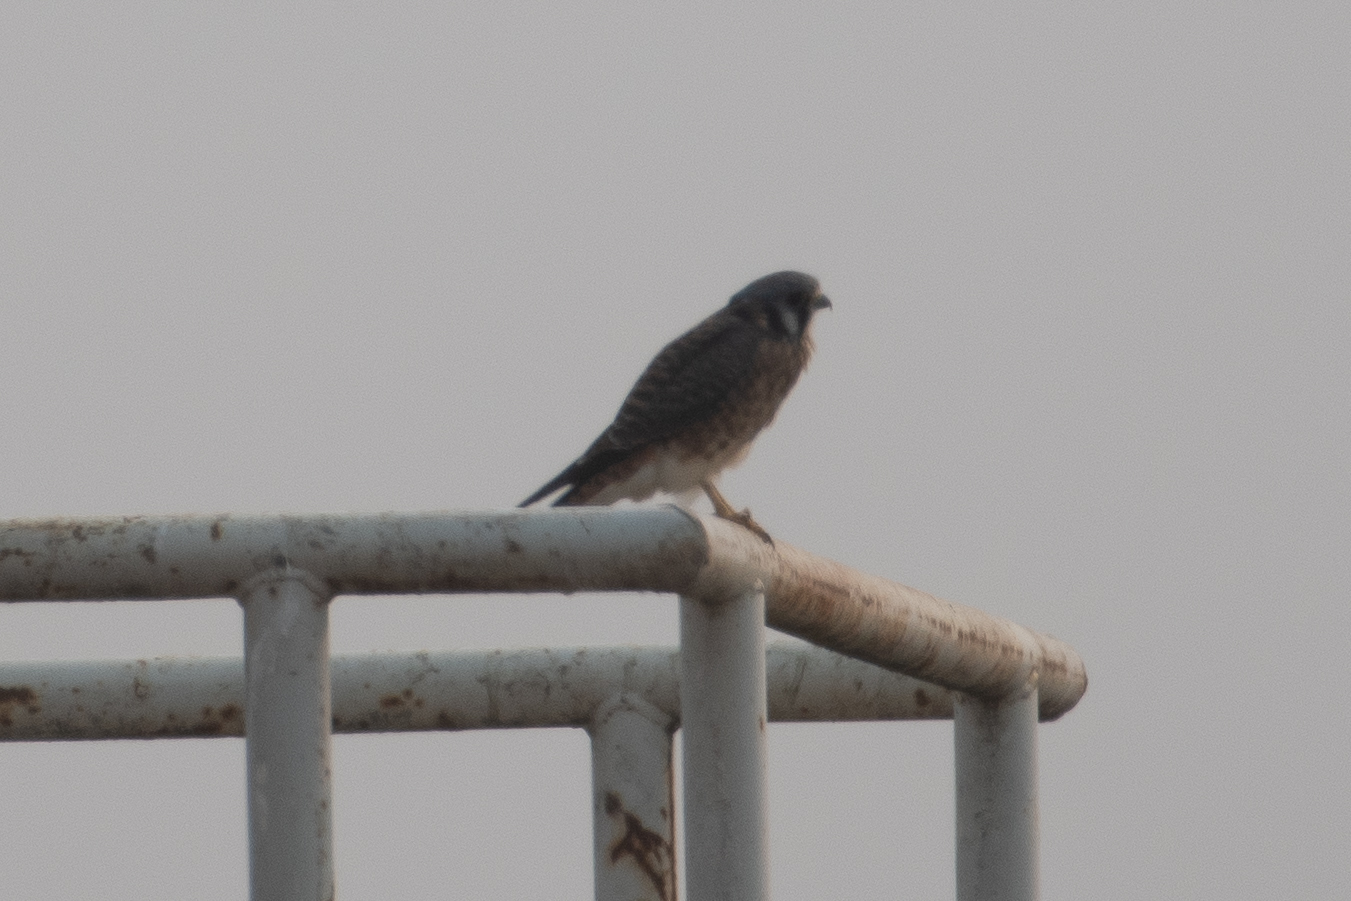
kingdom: Animalia
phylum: Chordata
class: Aves
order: Falconiformes
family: Falconidae
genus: Falco
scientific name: Falco sparverius
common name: American kestrel
